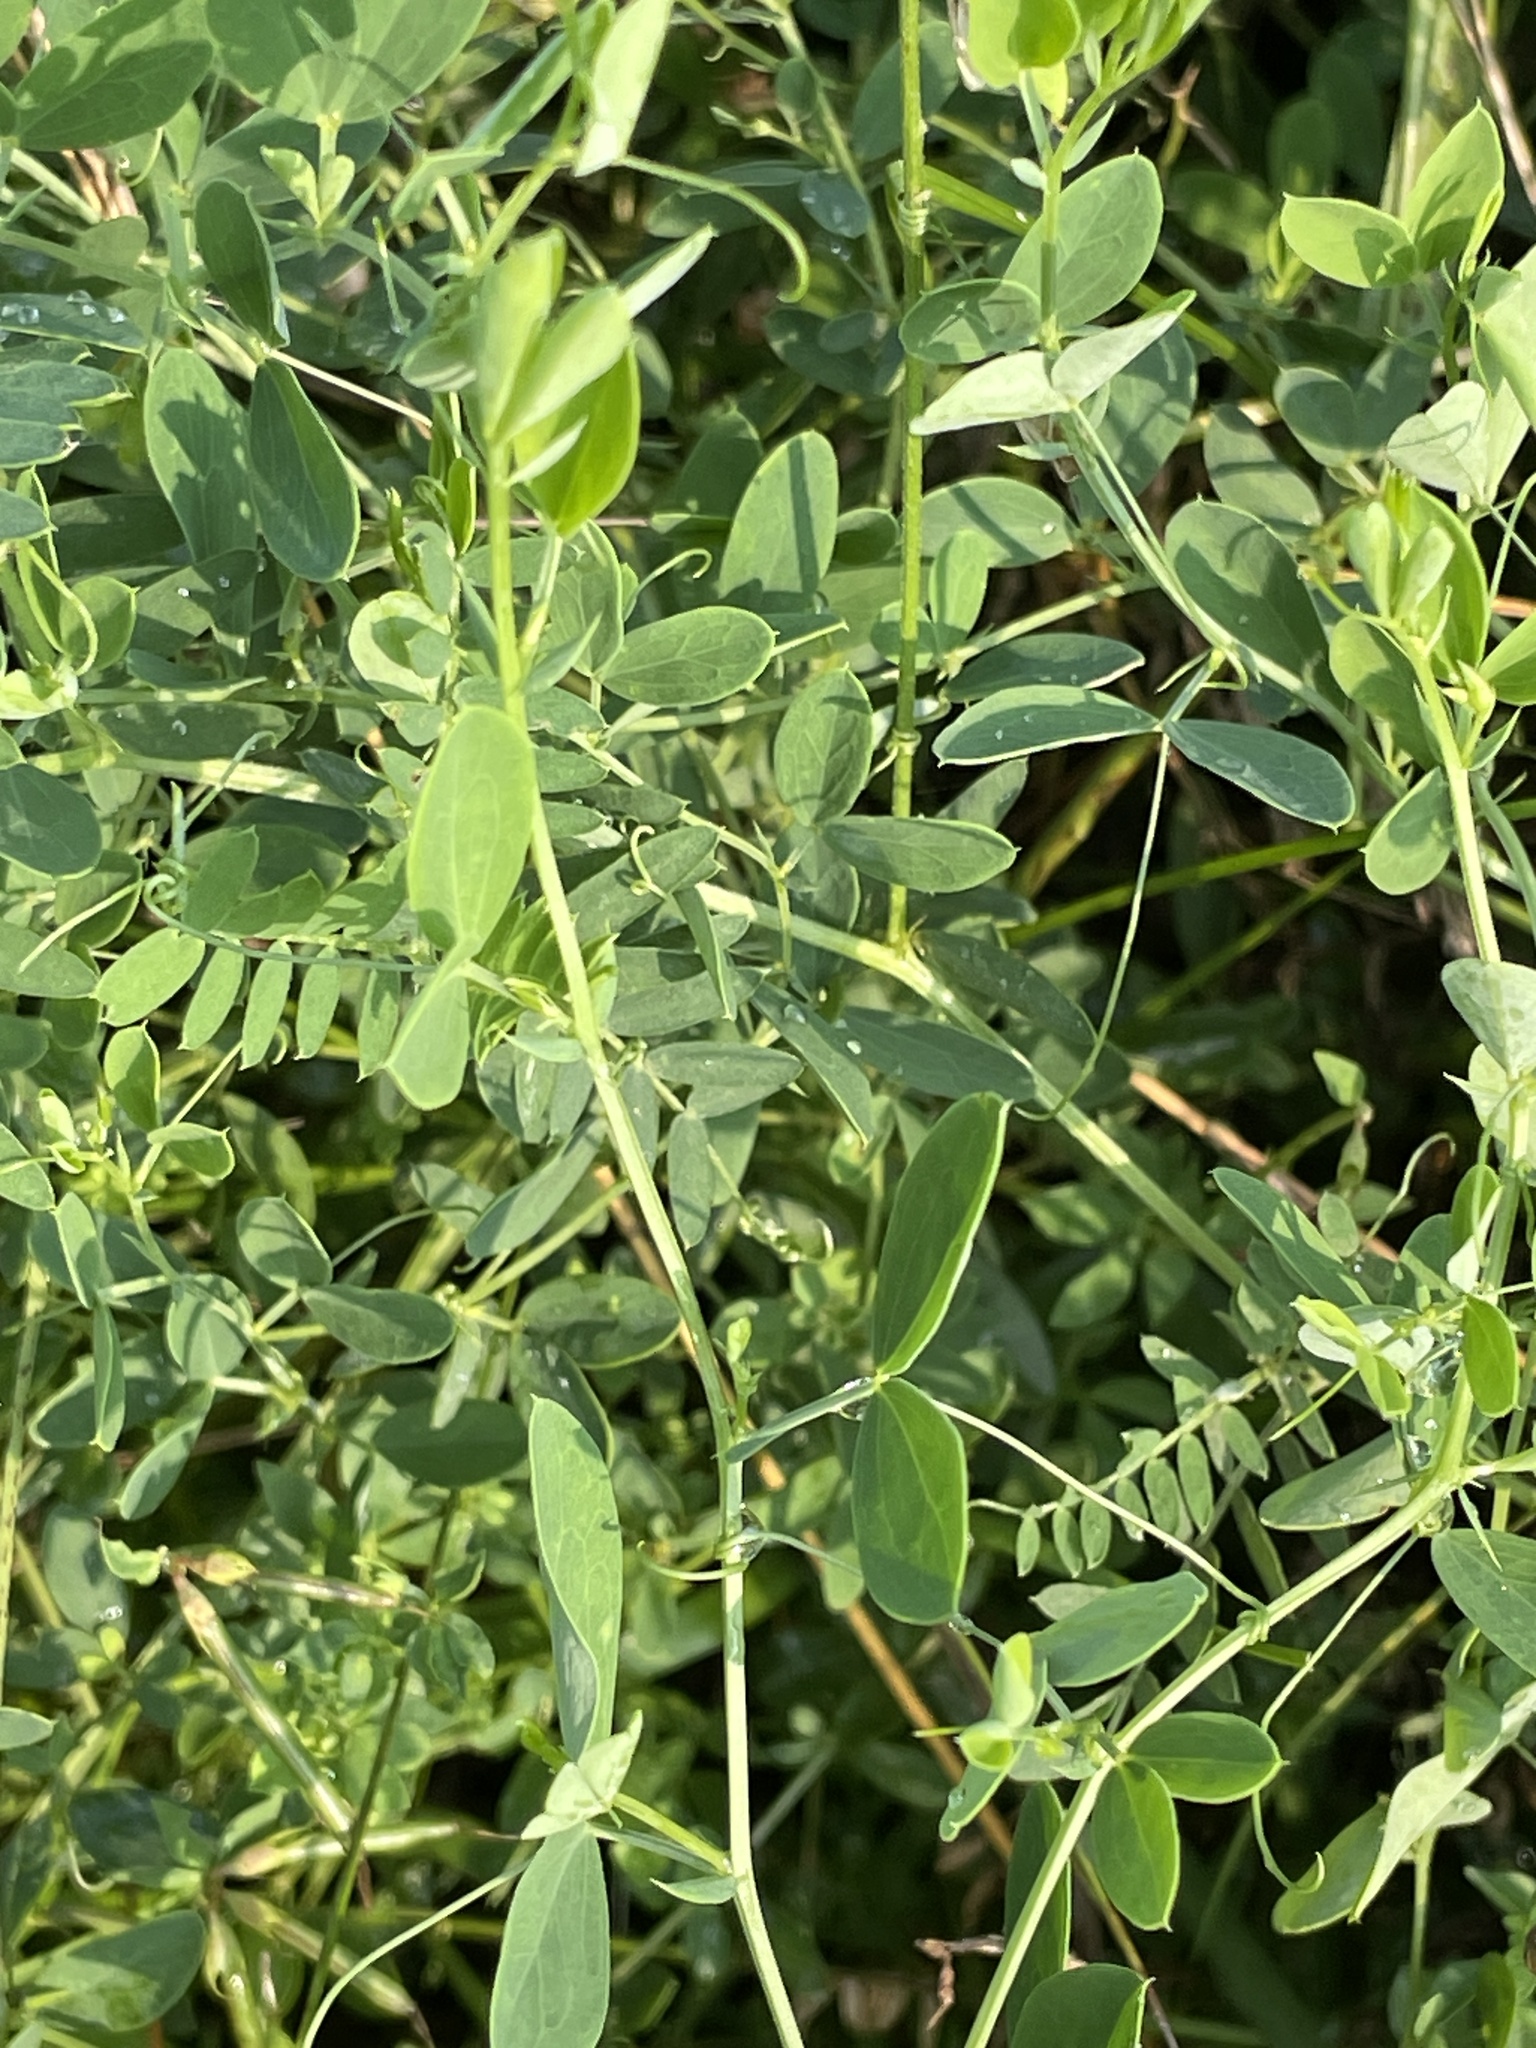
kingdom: Plantae
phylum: Tracheophyta
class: Magnoliopsida
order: Fabales
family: Fabaceae
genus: Lathyrus
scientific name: Lathyrus tuberosus
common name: Tuberous pea
